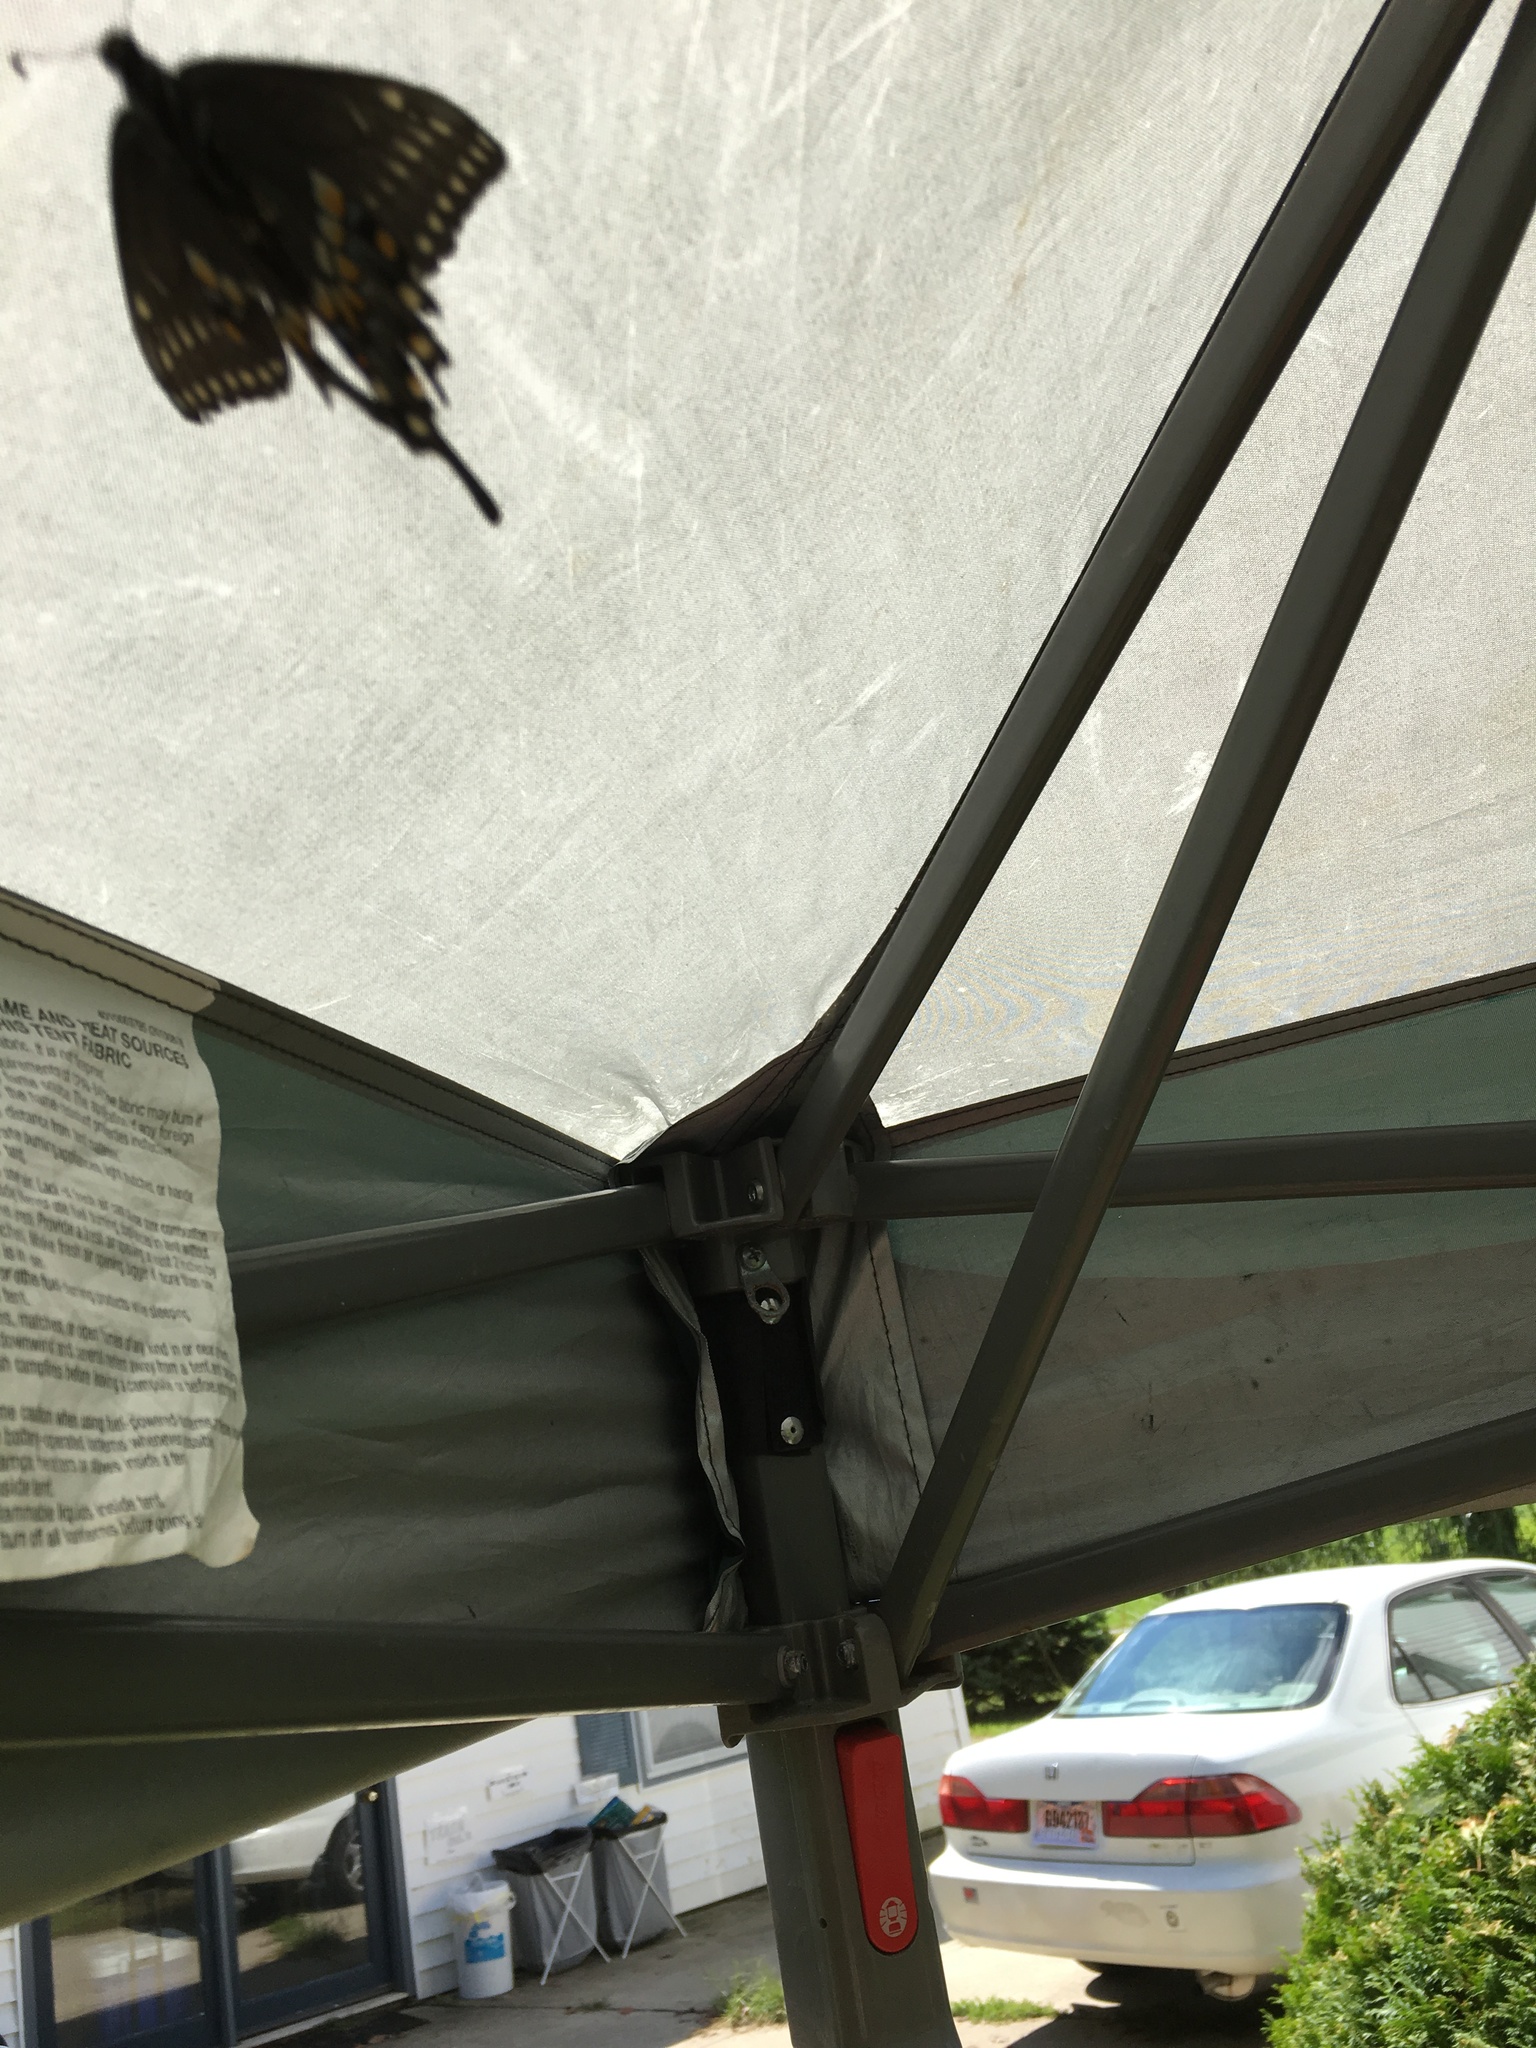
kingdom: Animalia
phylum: Arthropoda
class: Insecta
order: Lepidoptera
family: Papilionidae
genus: Papilio
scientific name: Papilio polyxenes
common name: Black swallowtail
